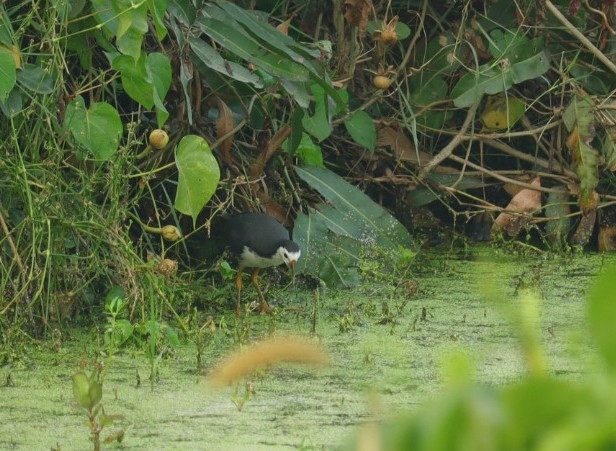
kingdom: Animalia
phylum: Chordata
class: Aves
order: Gruiformes
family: Rallidae
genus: Amaurornis
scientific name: Amaurornis phoenicurus
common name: White-breasted waterhen
